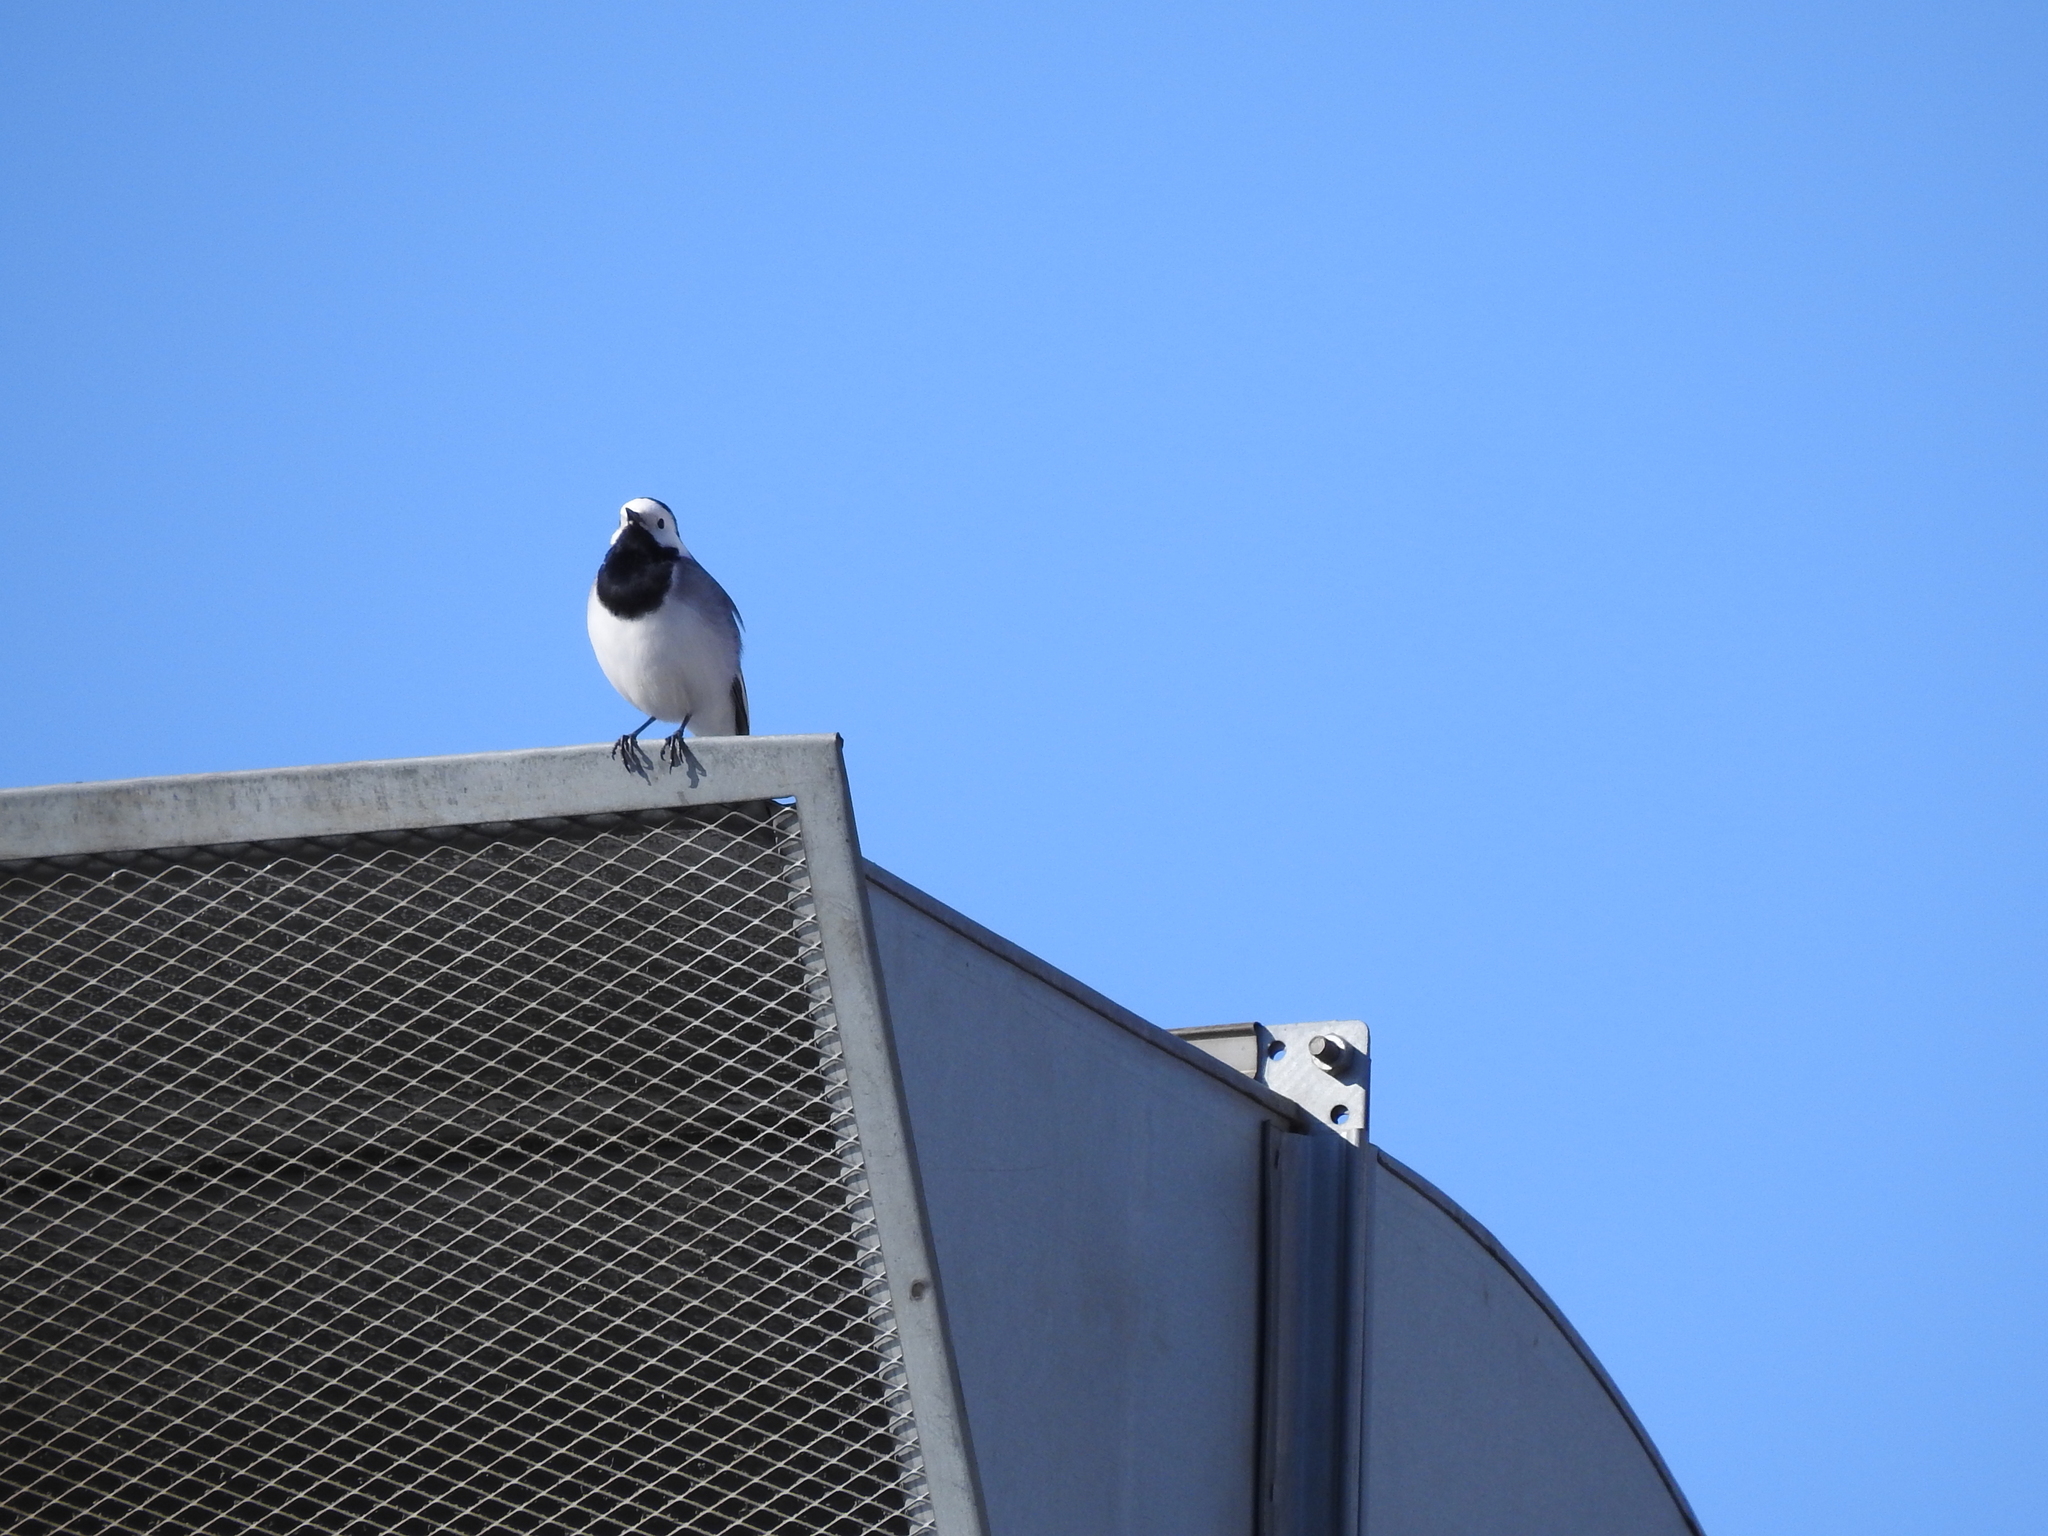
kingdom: Animalia
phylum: Chordata
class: Aves
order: Passeriformes
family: Motacillidae
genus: Motacilla
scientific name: Motacilla alba
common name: White wagtail
